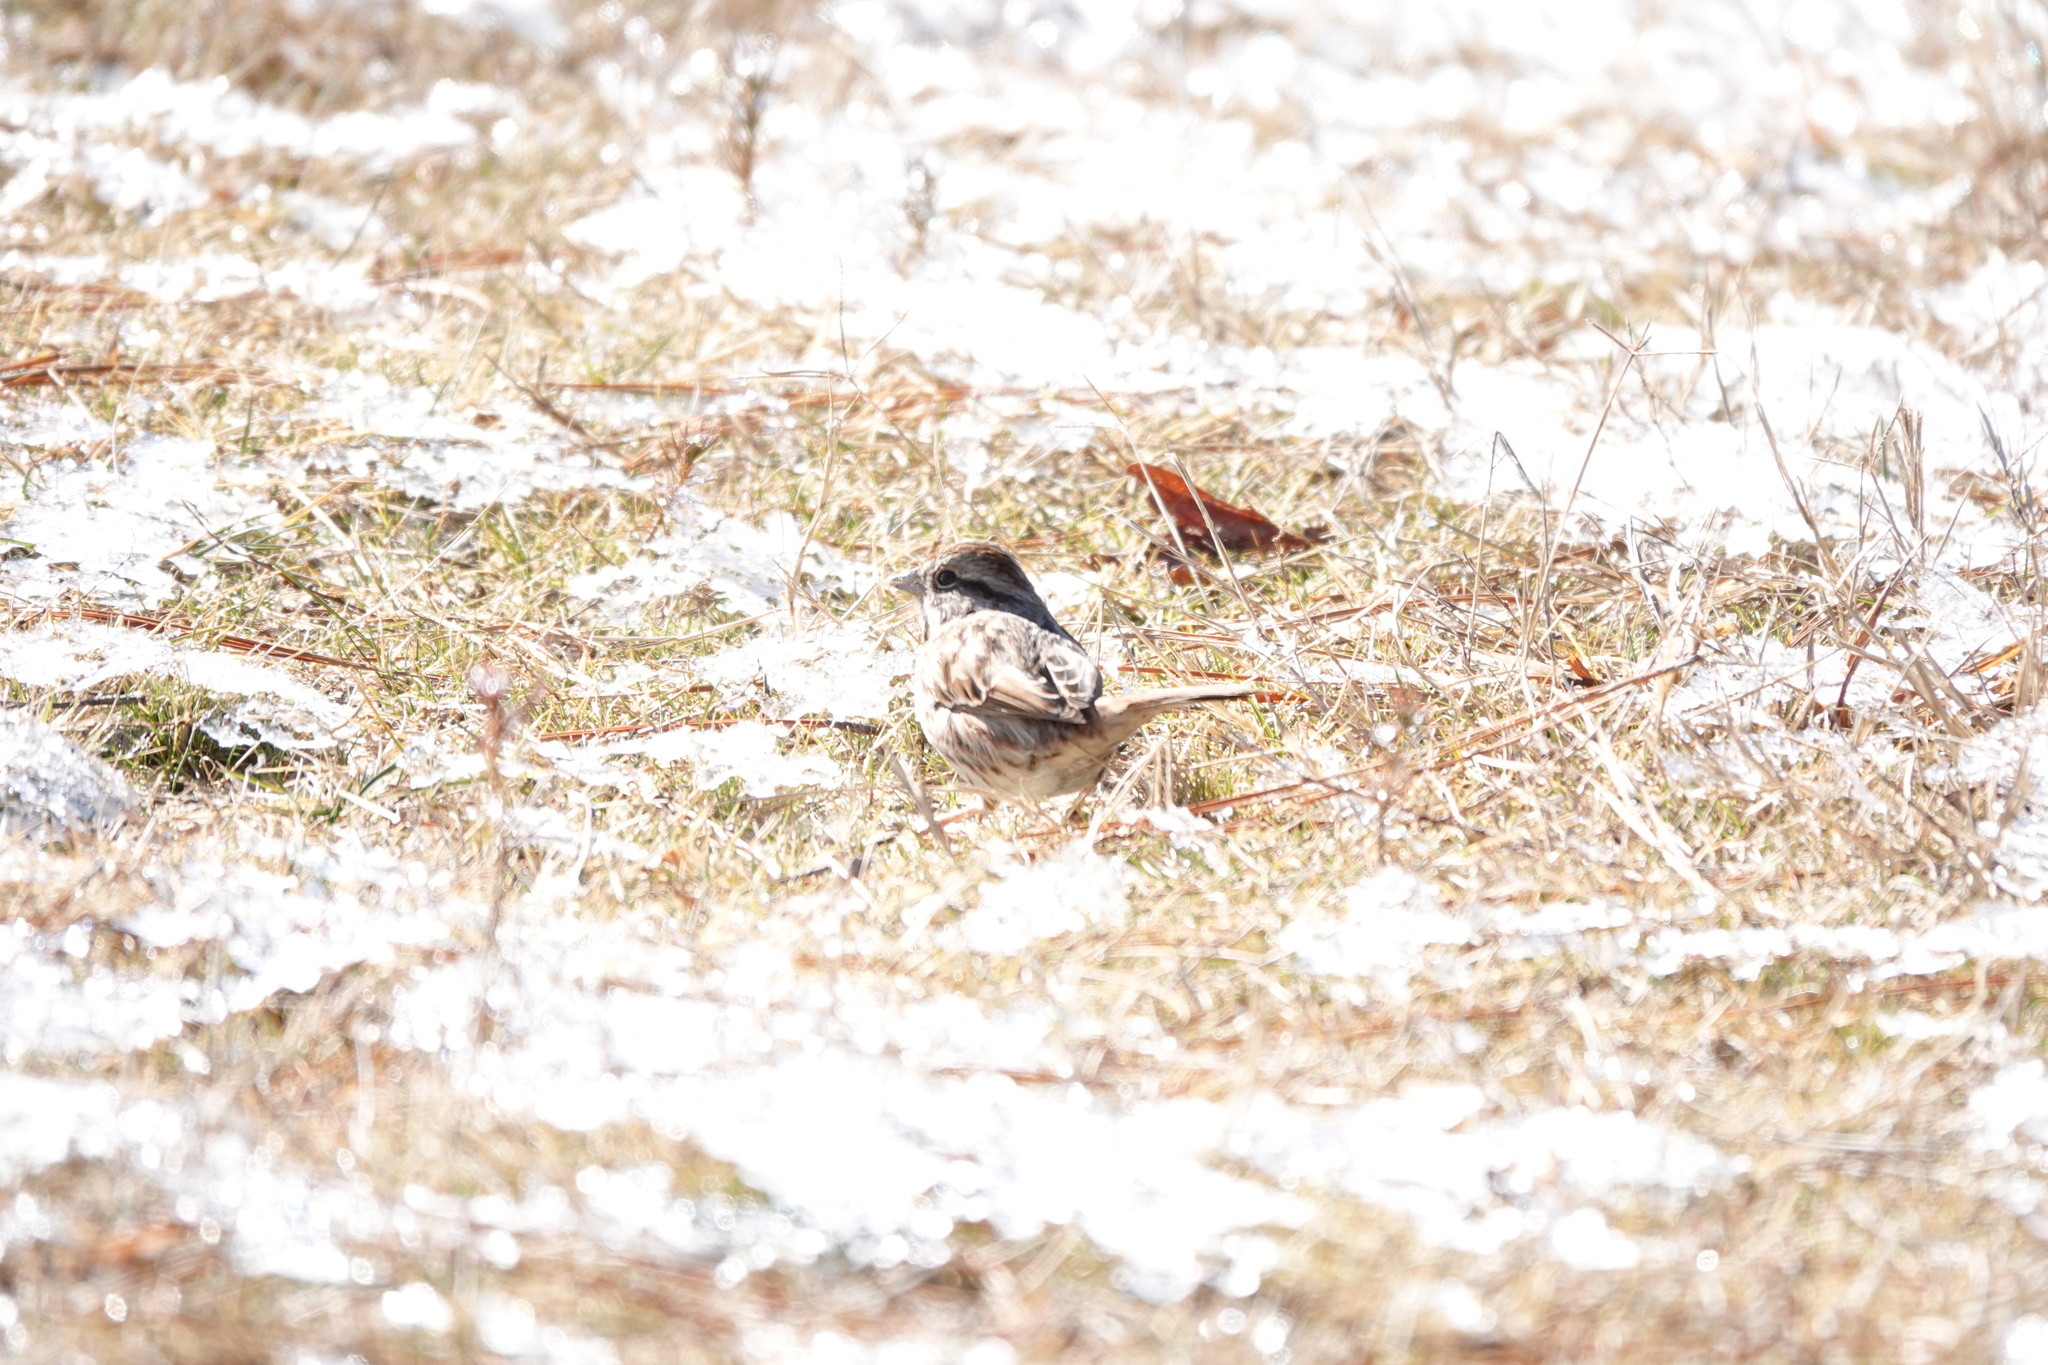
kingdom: Animalia
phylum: Chordata
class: Aves
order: Passeriformes
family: Passerellidae
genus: Melospiza
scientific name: Melospiza melodia
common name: Song sparrow
